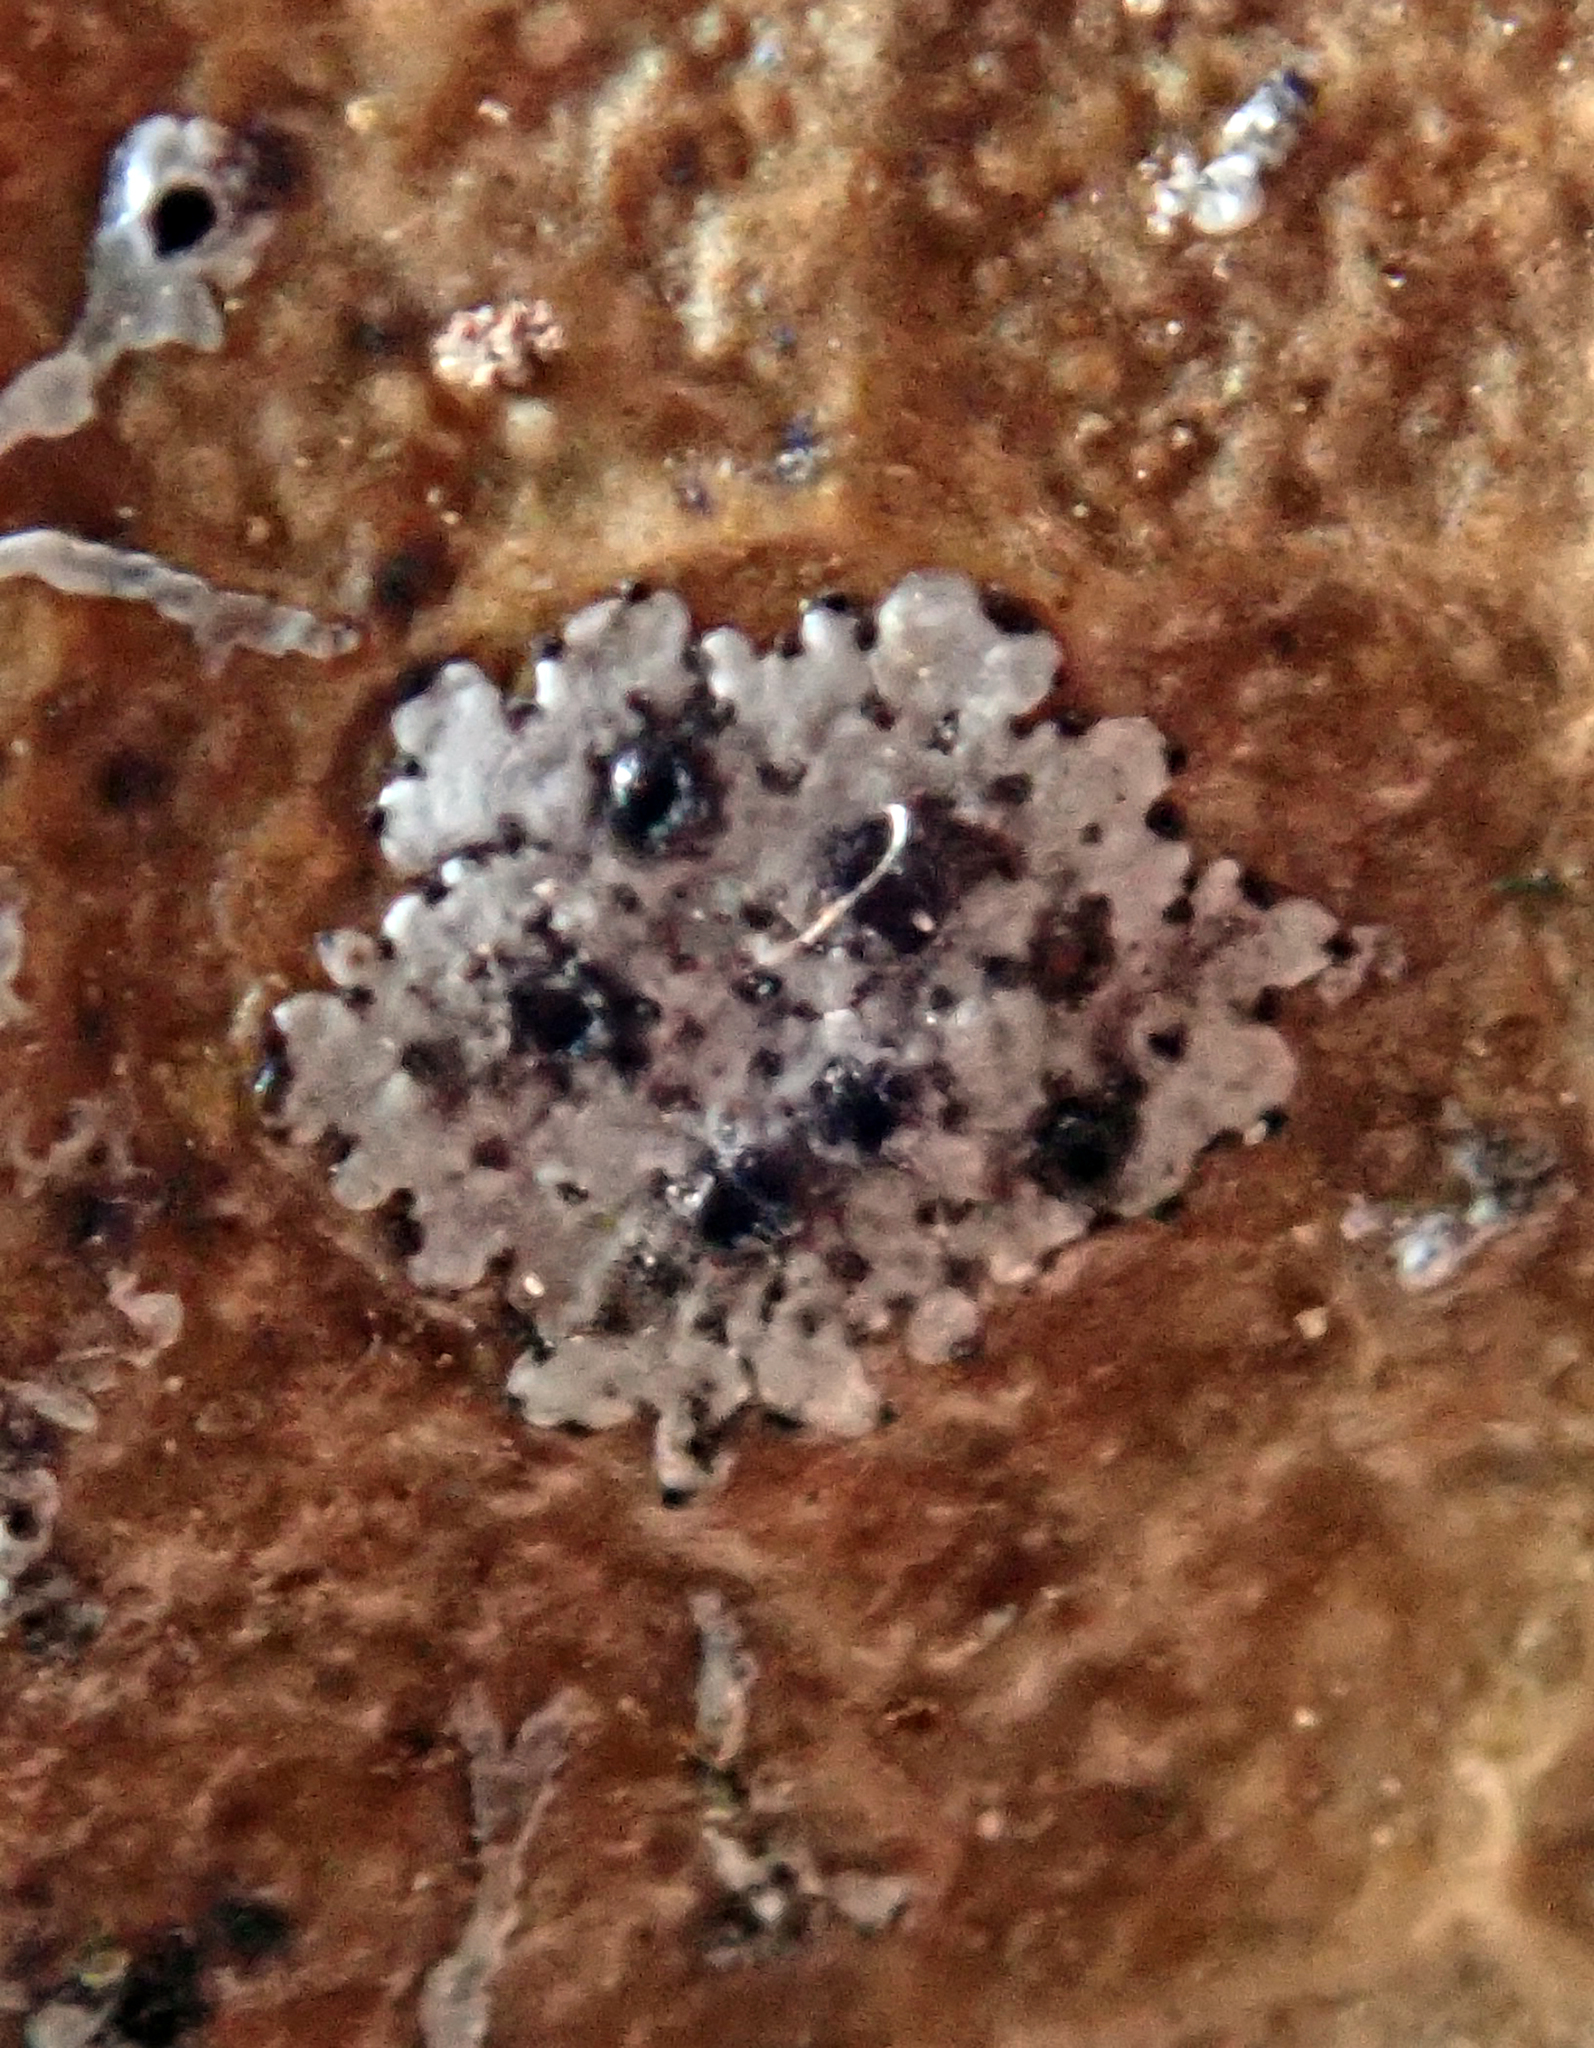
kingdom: Fungi
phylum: Ascomycota
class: Dothideomycetes
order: Strigulales
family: Strigulaceae
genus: Strigula
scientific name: Strigula nitidula
